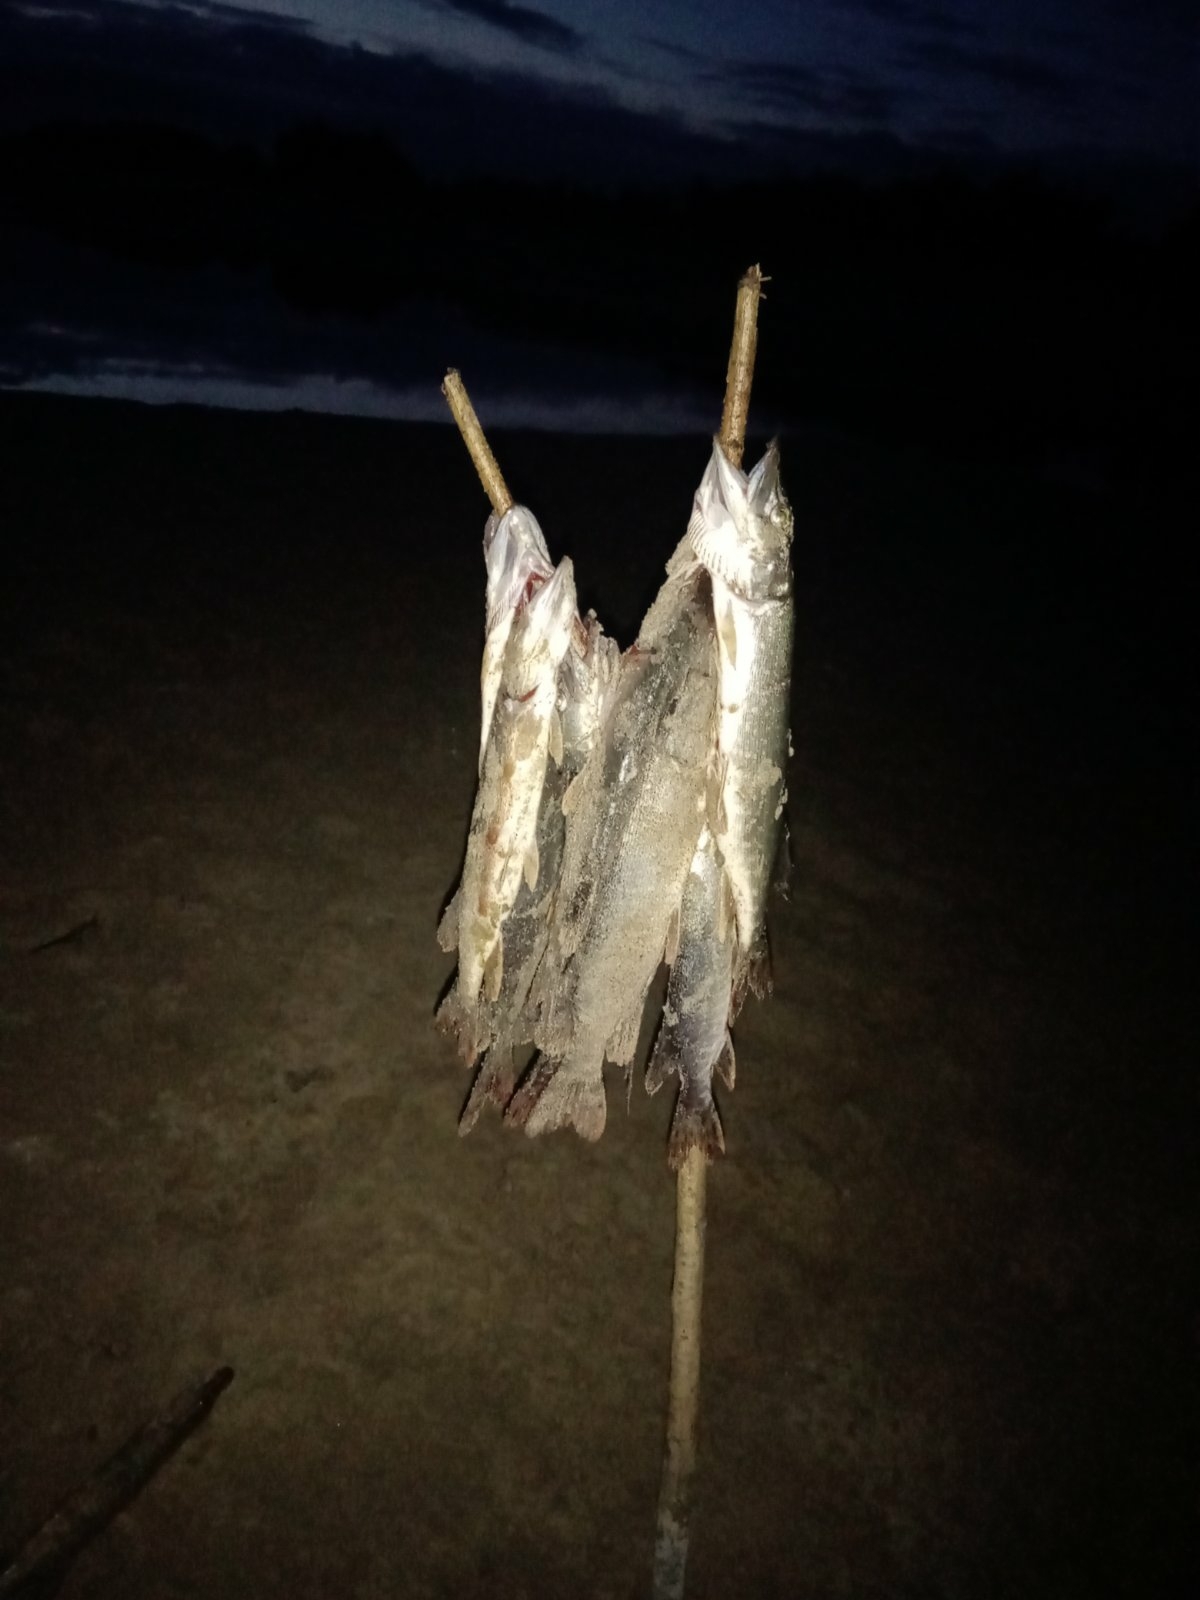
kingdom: Animalia
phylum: Chordata
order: Esociformes
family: Esocidae
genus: Esox
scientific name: Esox lucius
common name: Northern pike
